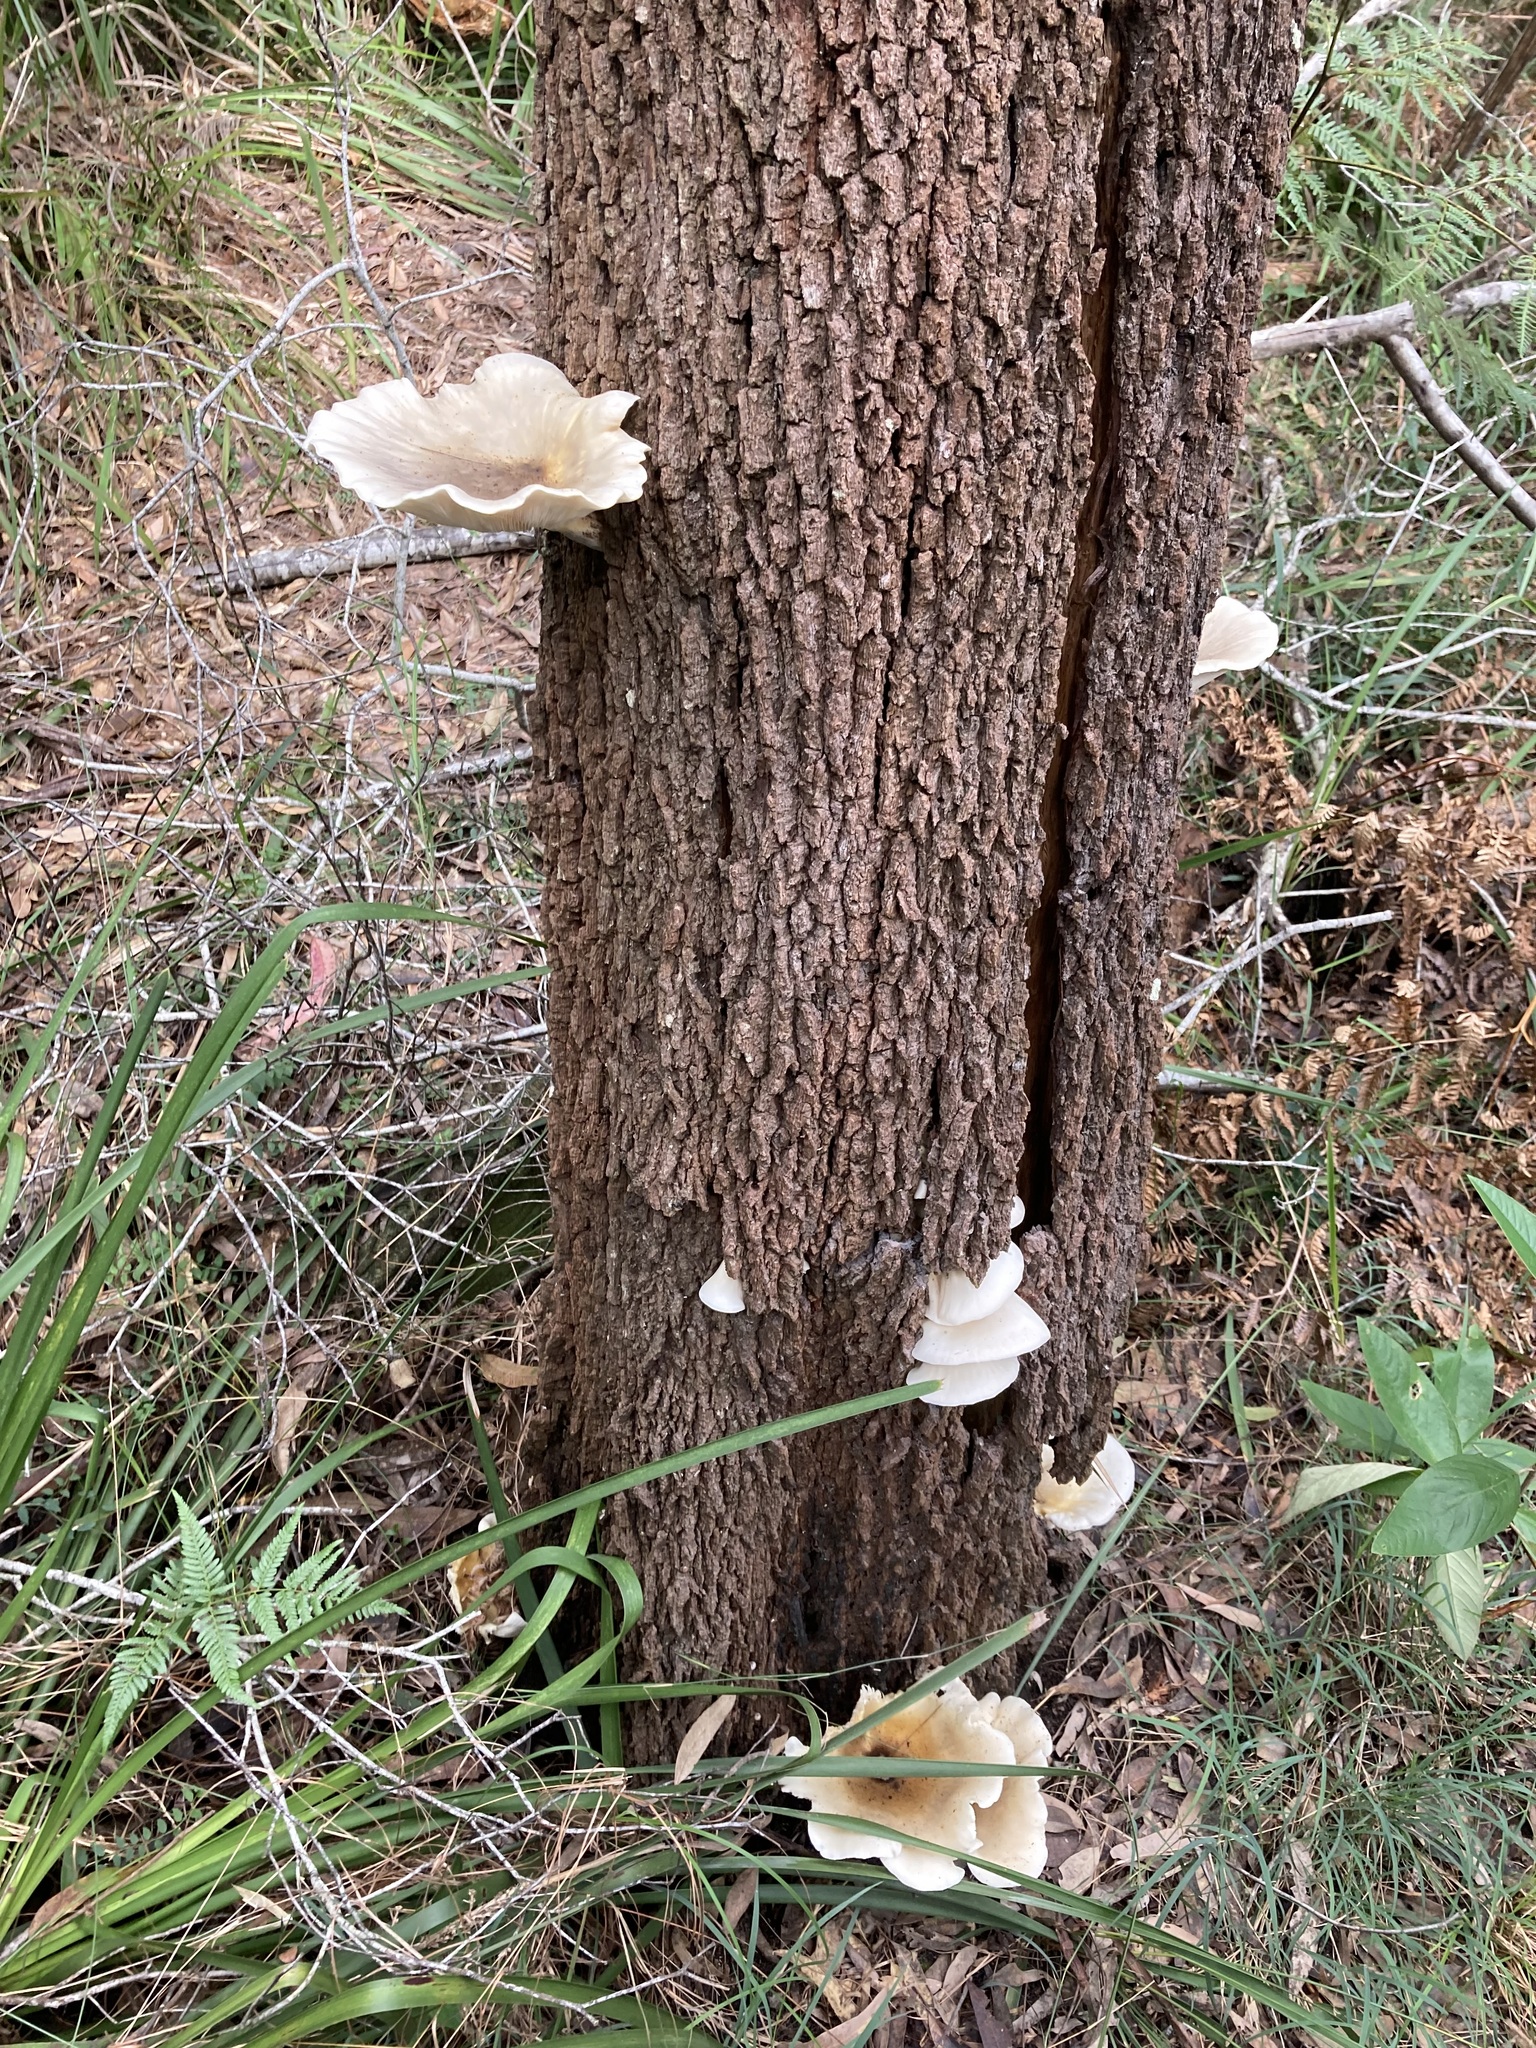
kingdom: Fungi
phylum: Basidiomycota
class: Agaricomycetes
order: Agaricales
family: Omphalotaceae
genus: Omphalotus
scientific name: Omphalotus nidiformis
